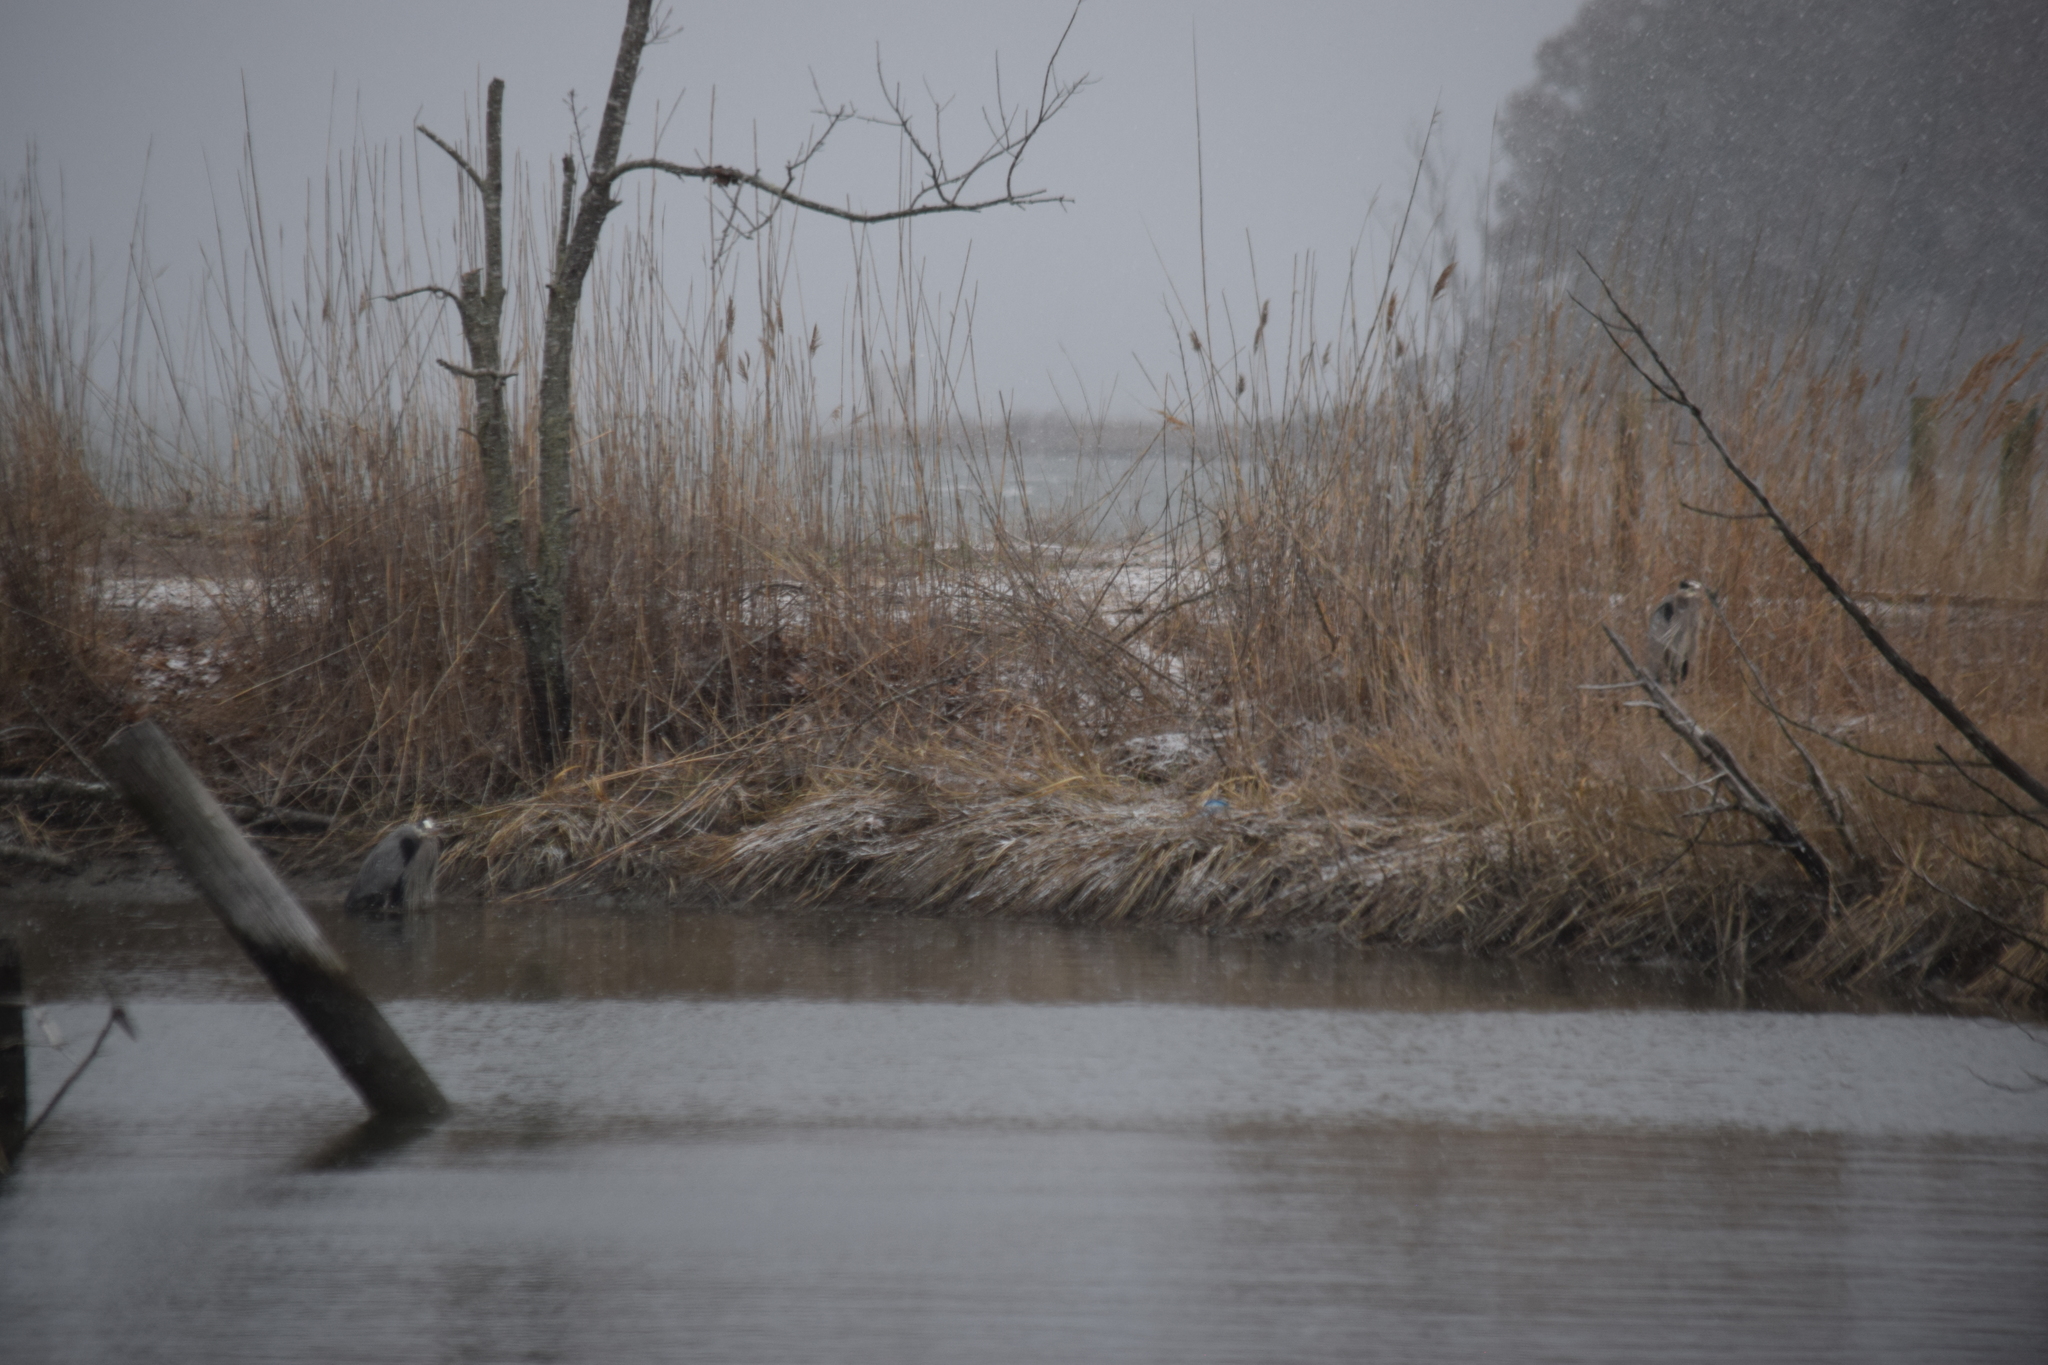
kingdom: Animalia
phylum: Chordata
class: Aves
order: Pelecaniformes
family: Ardeidae
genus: Ardea
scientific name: Ardea herodias
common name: Great blue heron
